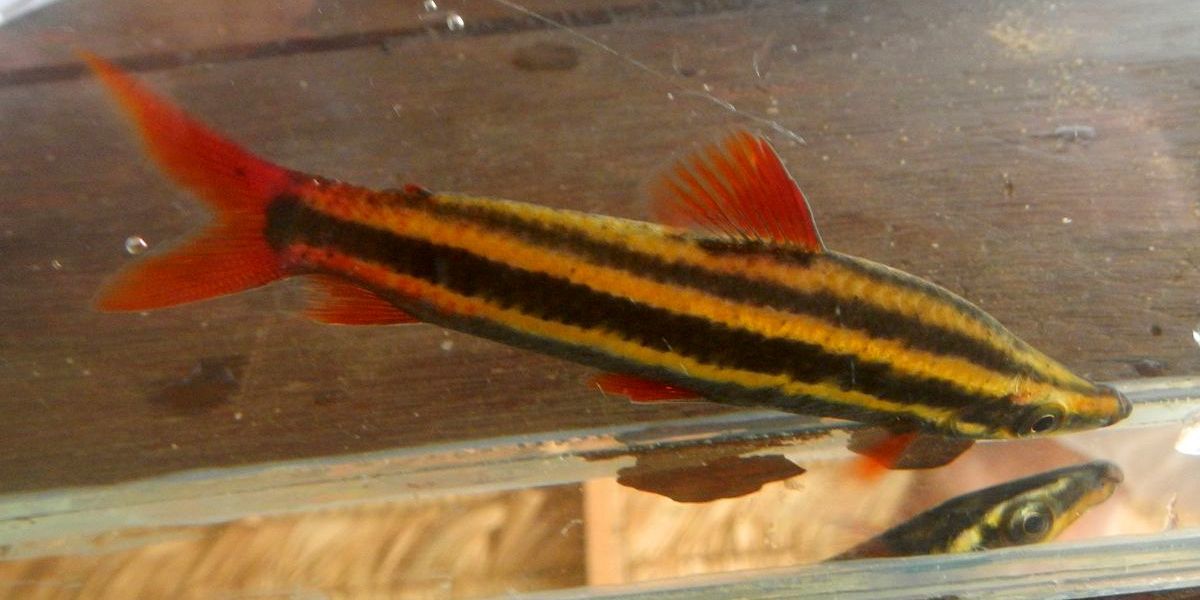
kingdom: Animalia
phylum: Chordata
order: Characiformes
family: Anostomidae
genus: Anostomus
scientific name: Anostomus anostomus
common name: Striped headstander
